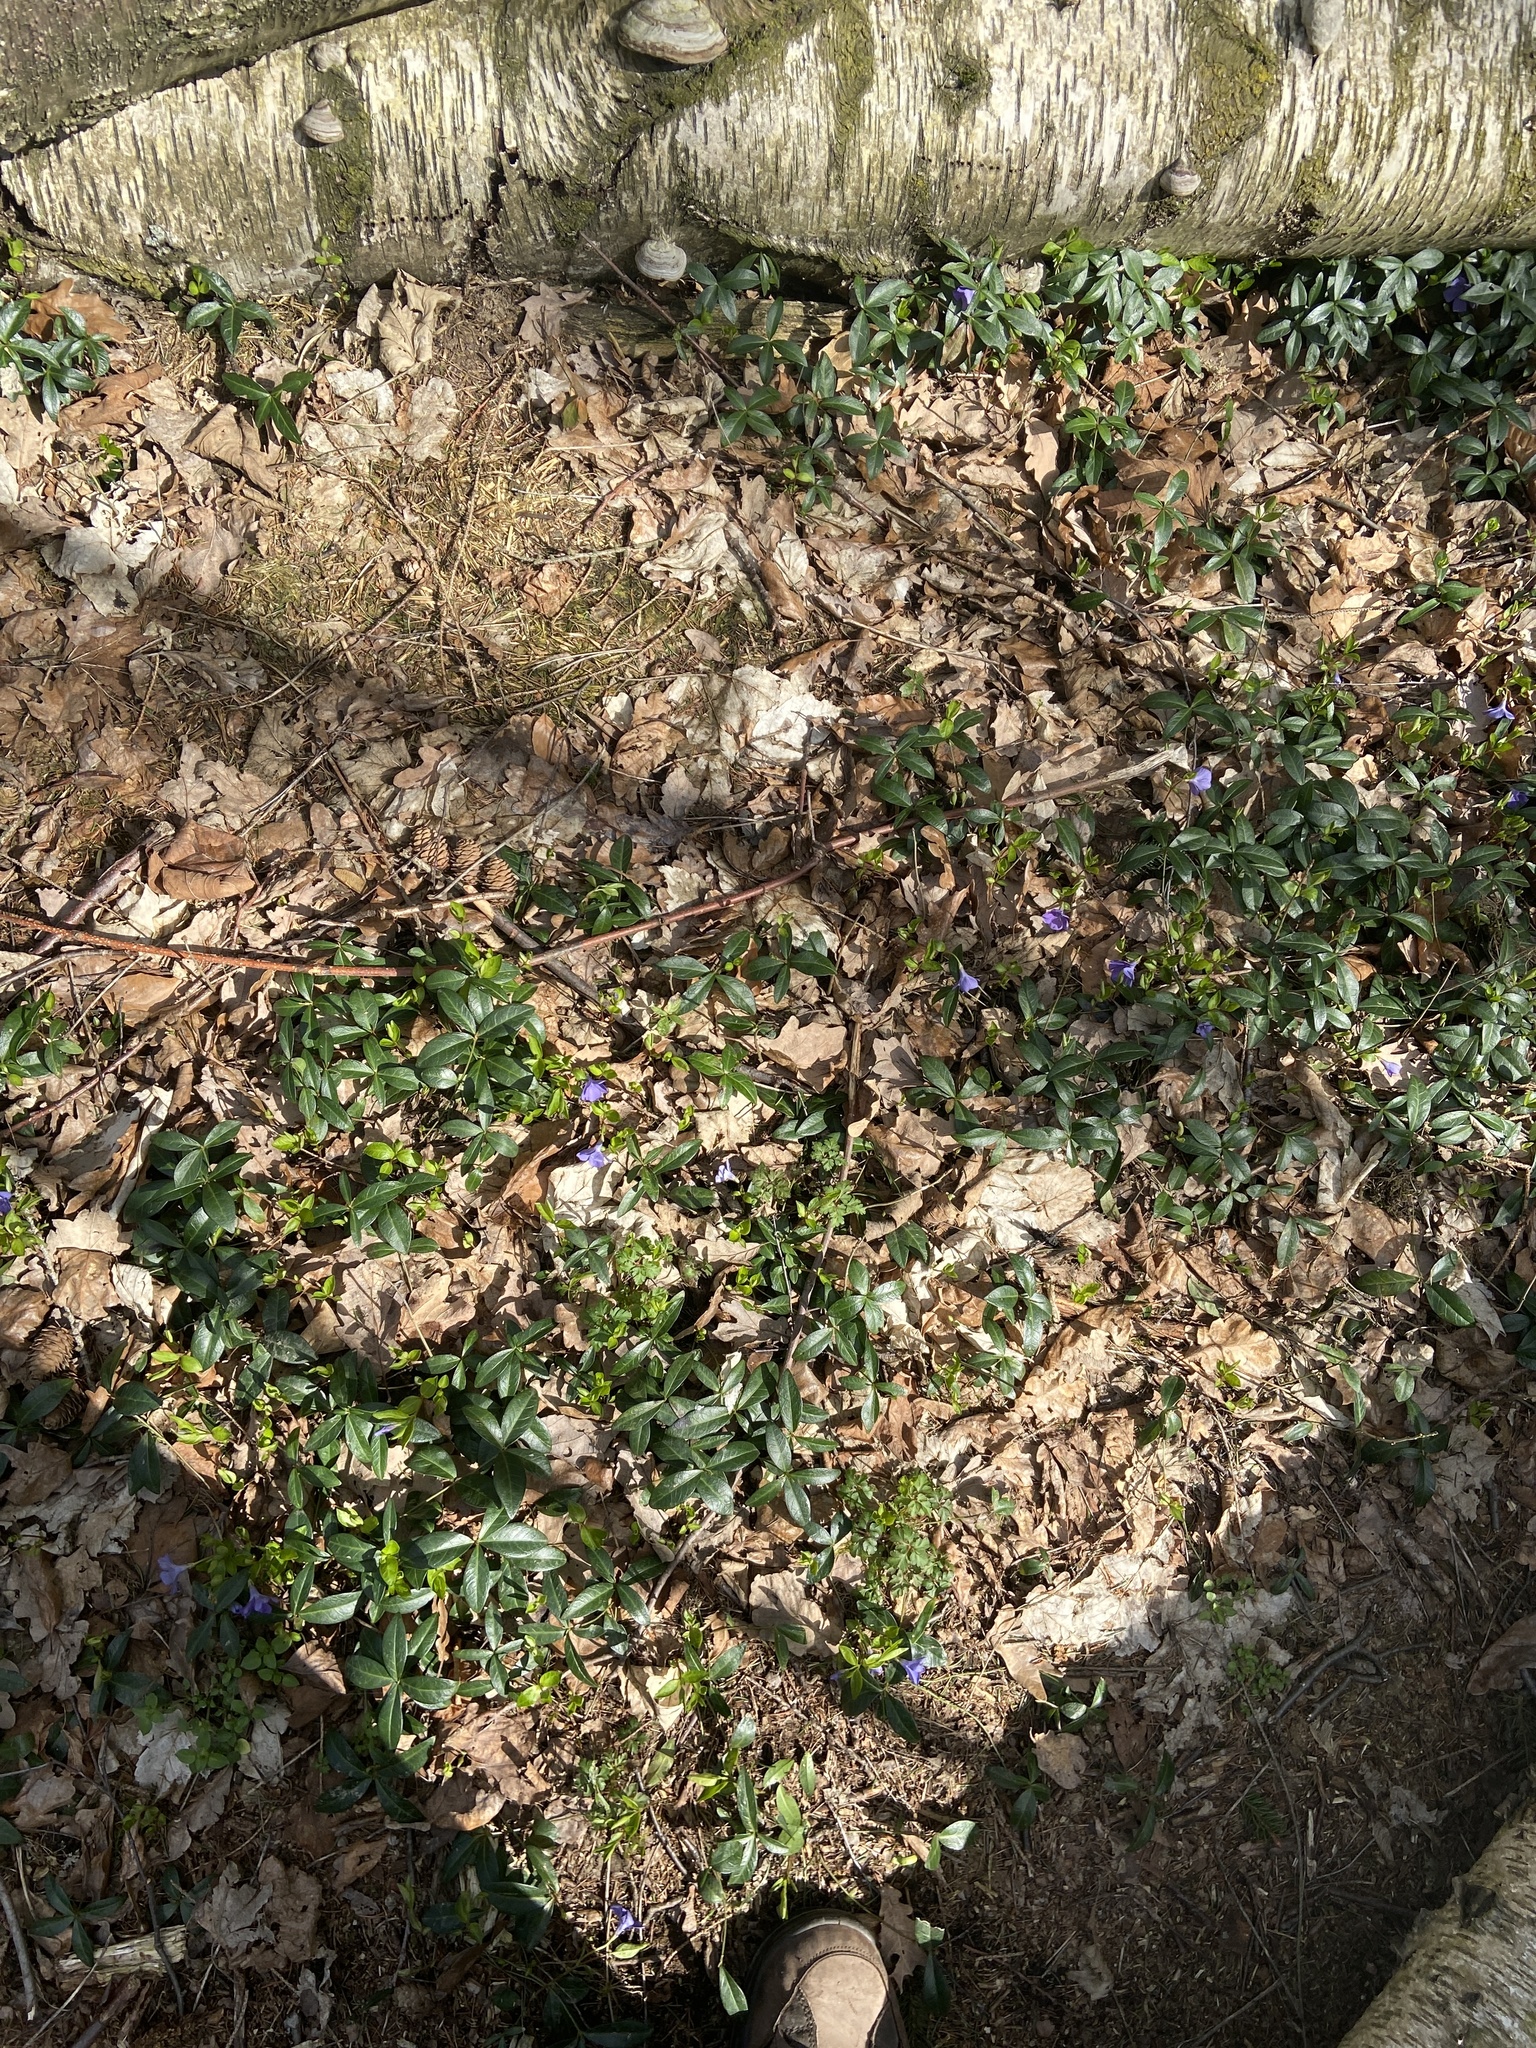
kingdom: Plantae
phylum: Tracheophyta
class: Magnoliopsida
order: Gentianales
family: Apocynaceae
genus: Vinca
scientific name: Vinca minor
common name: Lesser periwinkle
